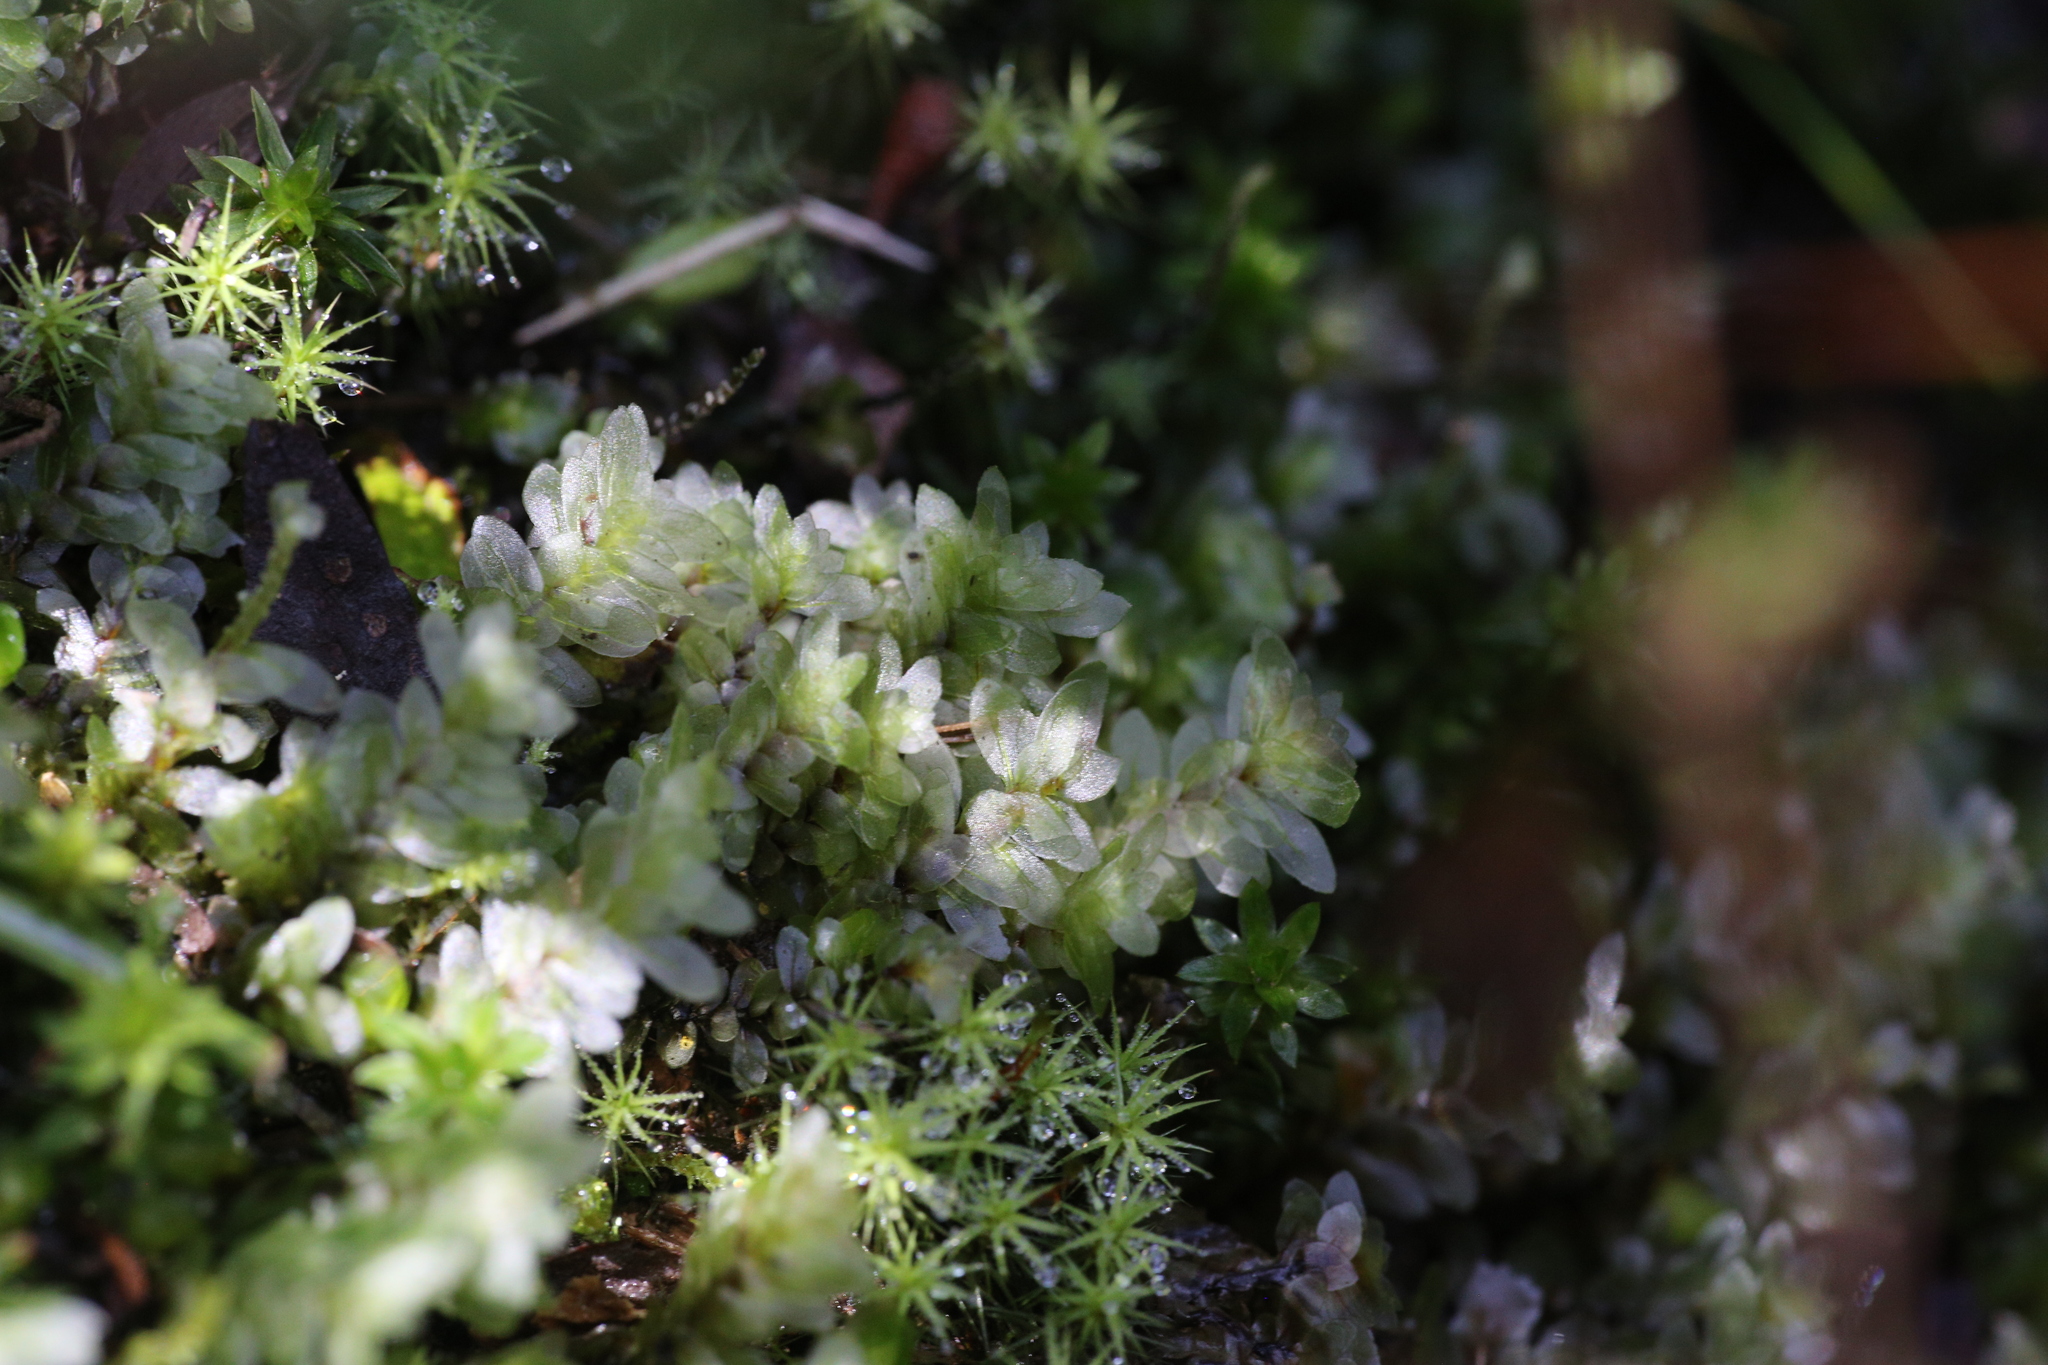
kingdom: Plantae
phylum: Bryophyta
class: Bryopsida
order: Hookeriales
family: Daltoniaceae
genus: Achrophyllum
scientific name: Achrophyllum dentatum
